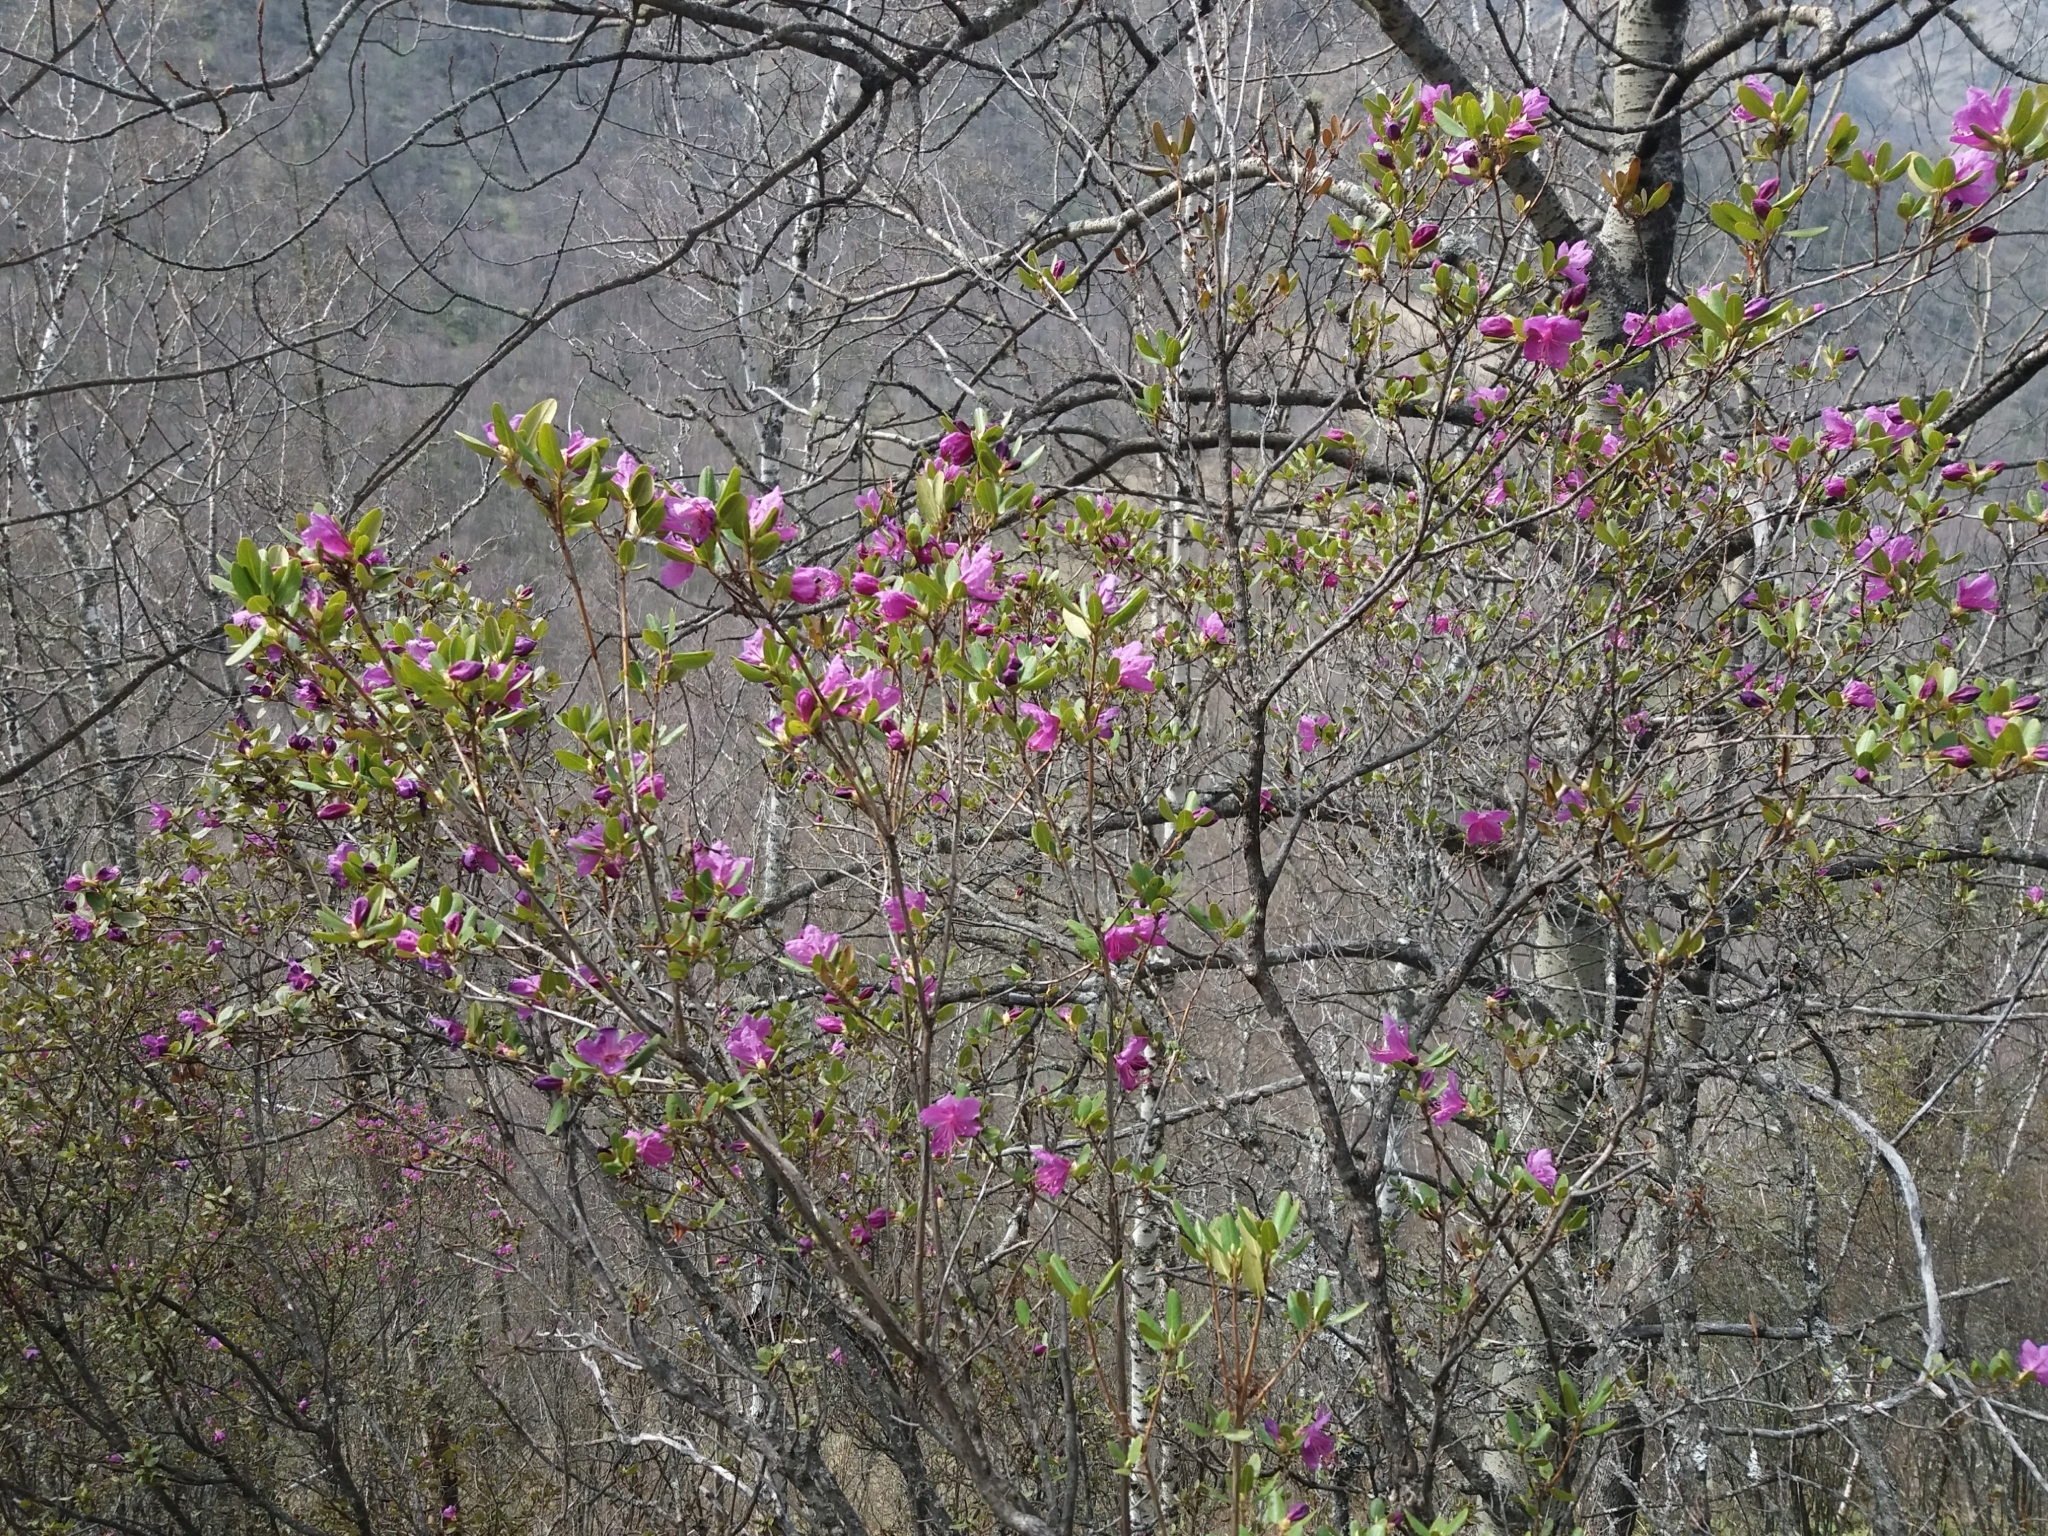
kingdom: Plantae
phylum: Tracheophyta
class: Magnoliopsida
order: Ericales
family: Ericaceae
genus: Rhododendron
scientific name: Rhododendron dauricum
